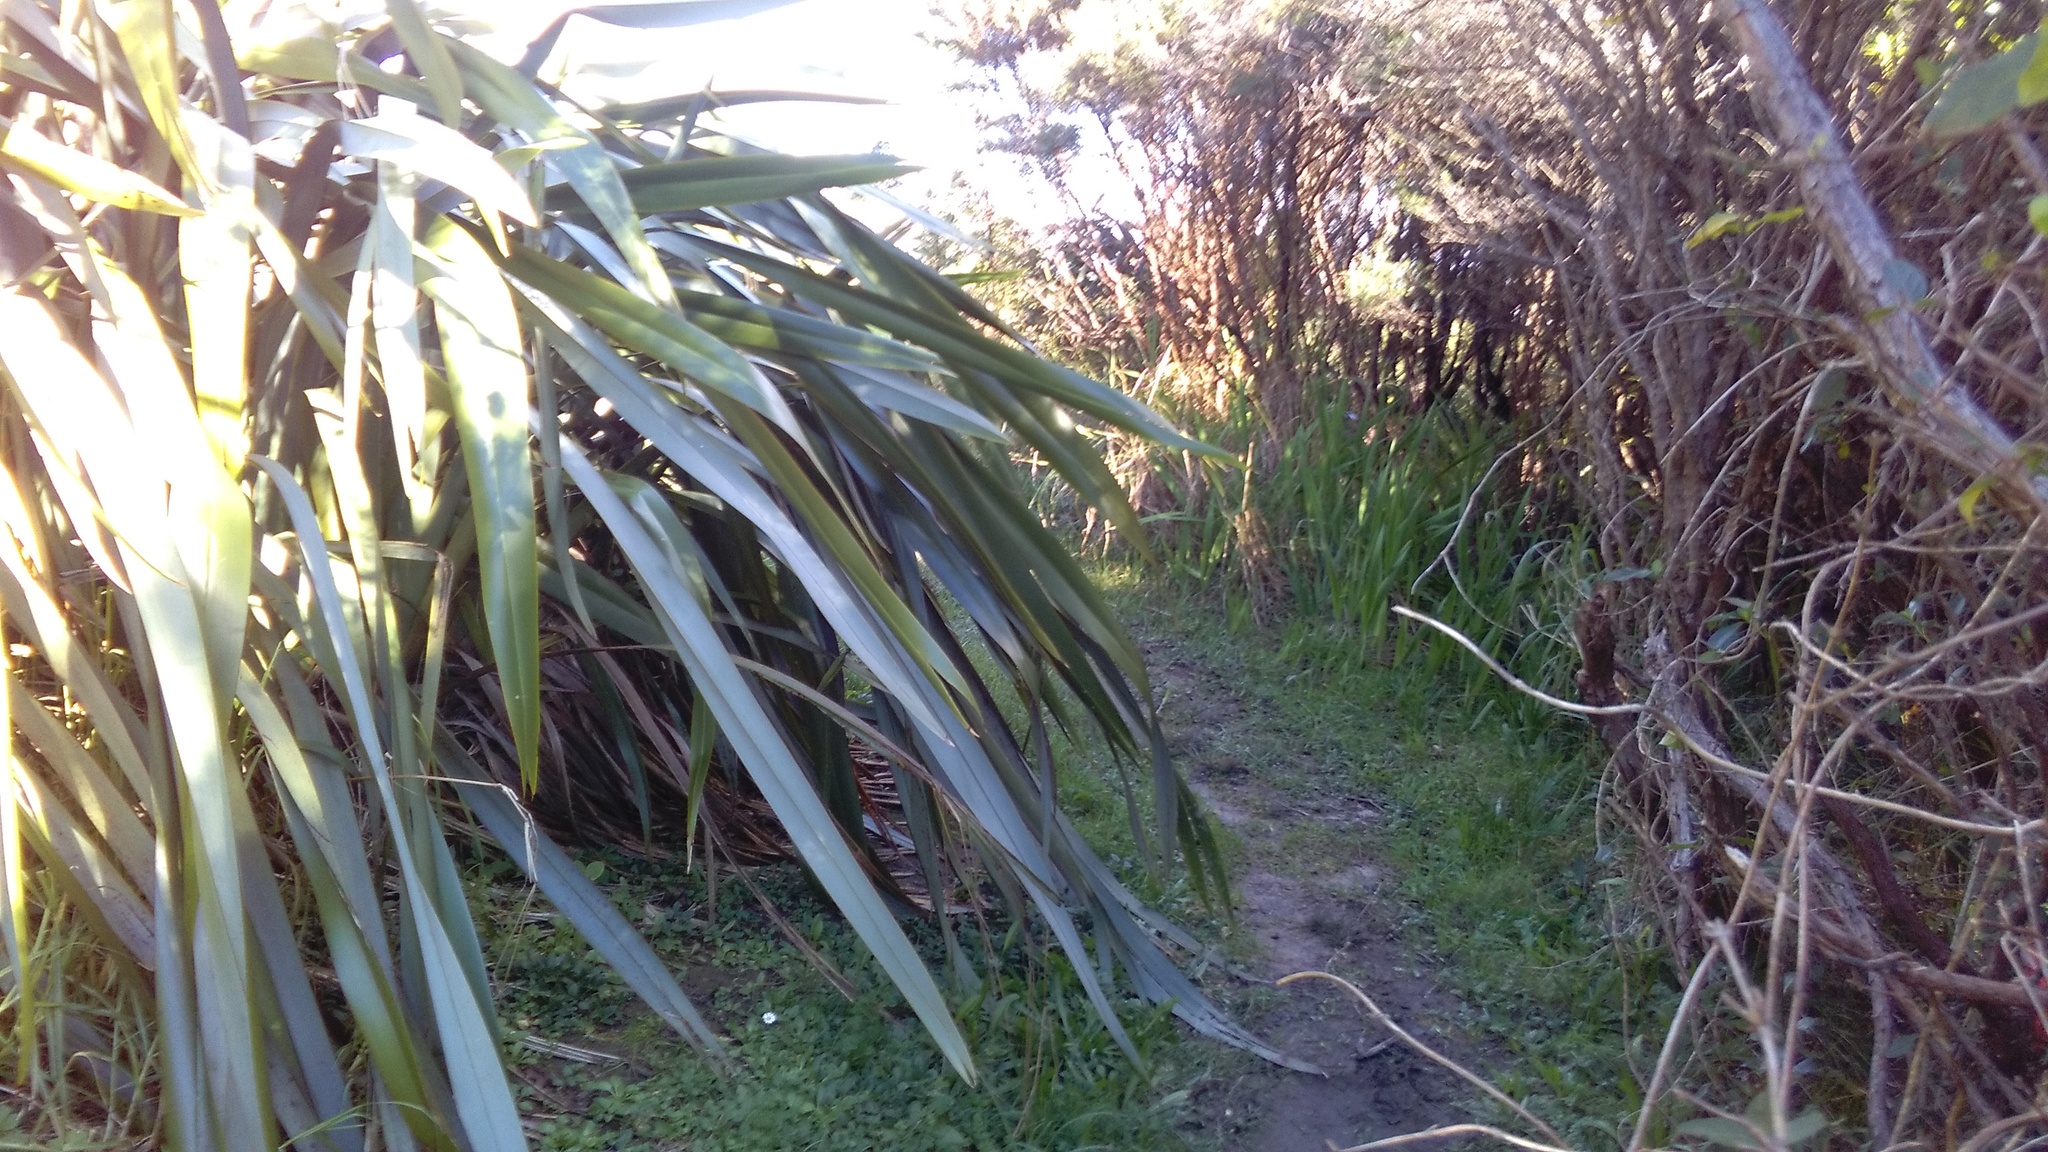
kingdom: Plantae
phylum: Tracheophyta
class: Liliopsida
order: Poales
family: Poaceae
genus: Paspalum
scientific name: Paspalum urvillei
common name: Vasey's grass
